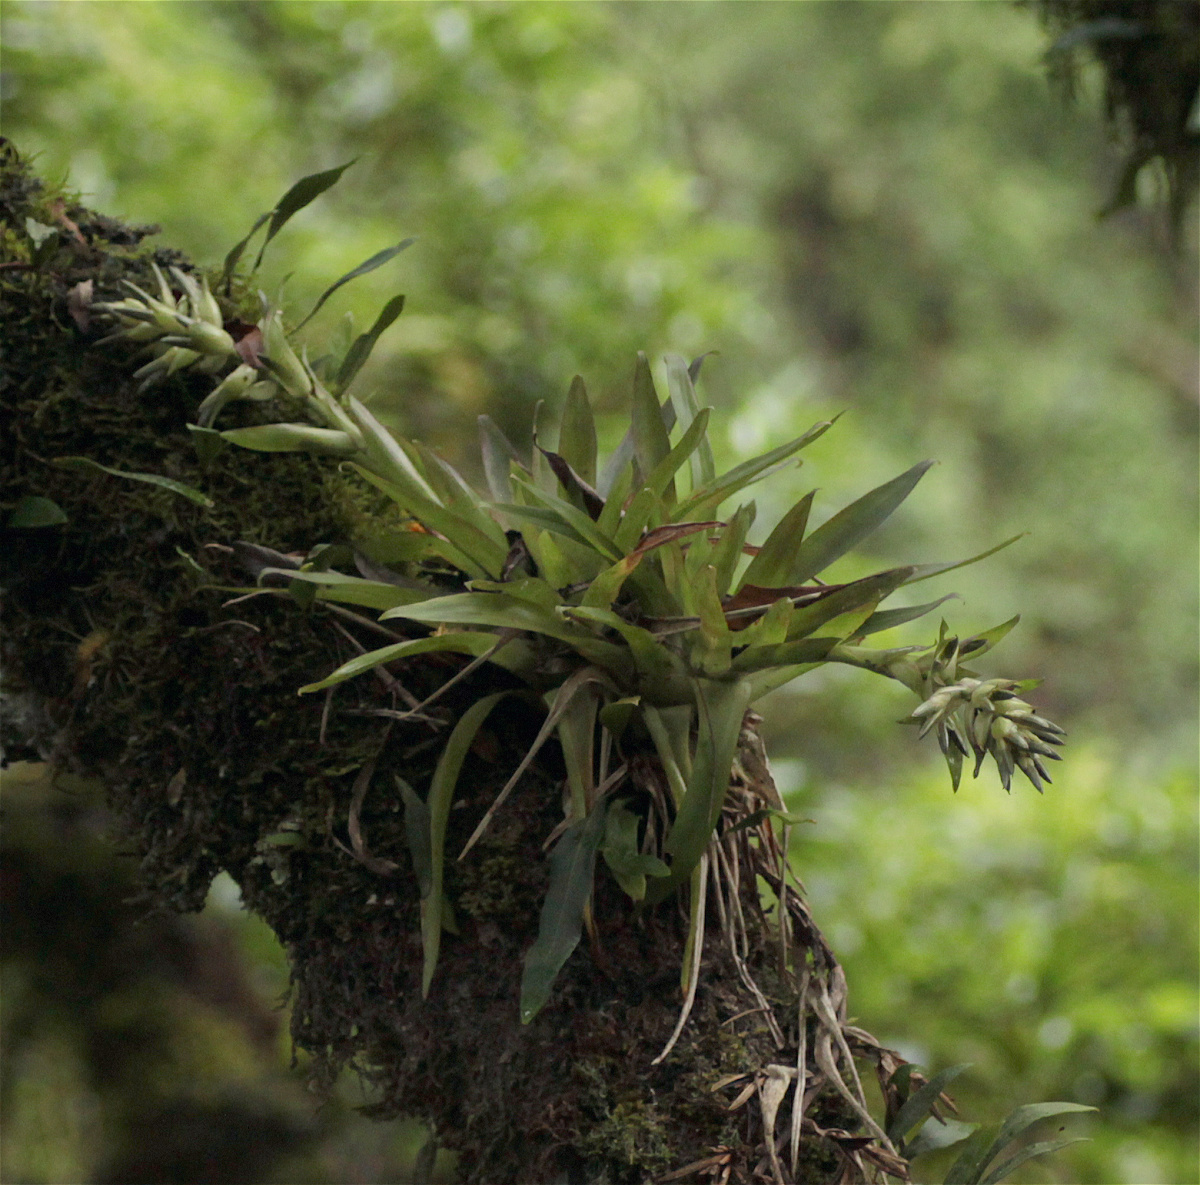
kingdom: Plantae
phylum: Tracheophyta
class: Liliopsida
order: Poales
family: Bromeliaceae
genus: Tillandsia
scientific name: Tillandsia biflora
